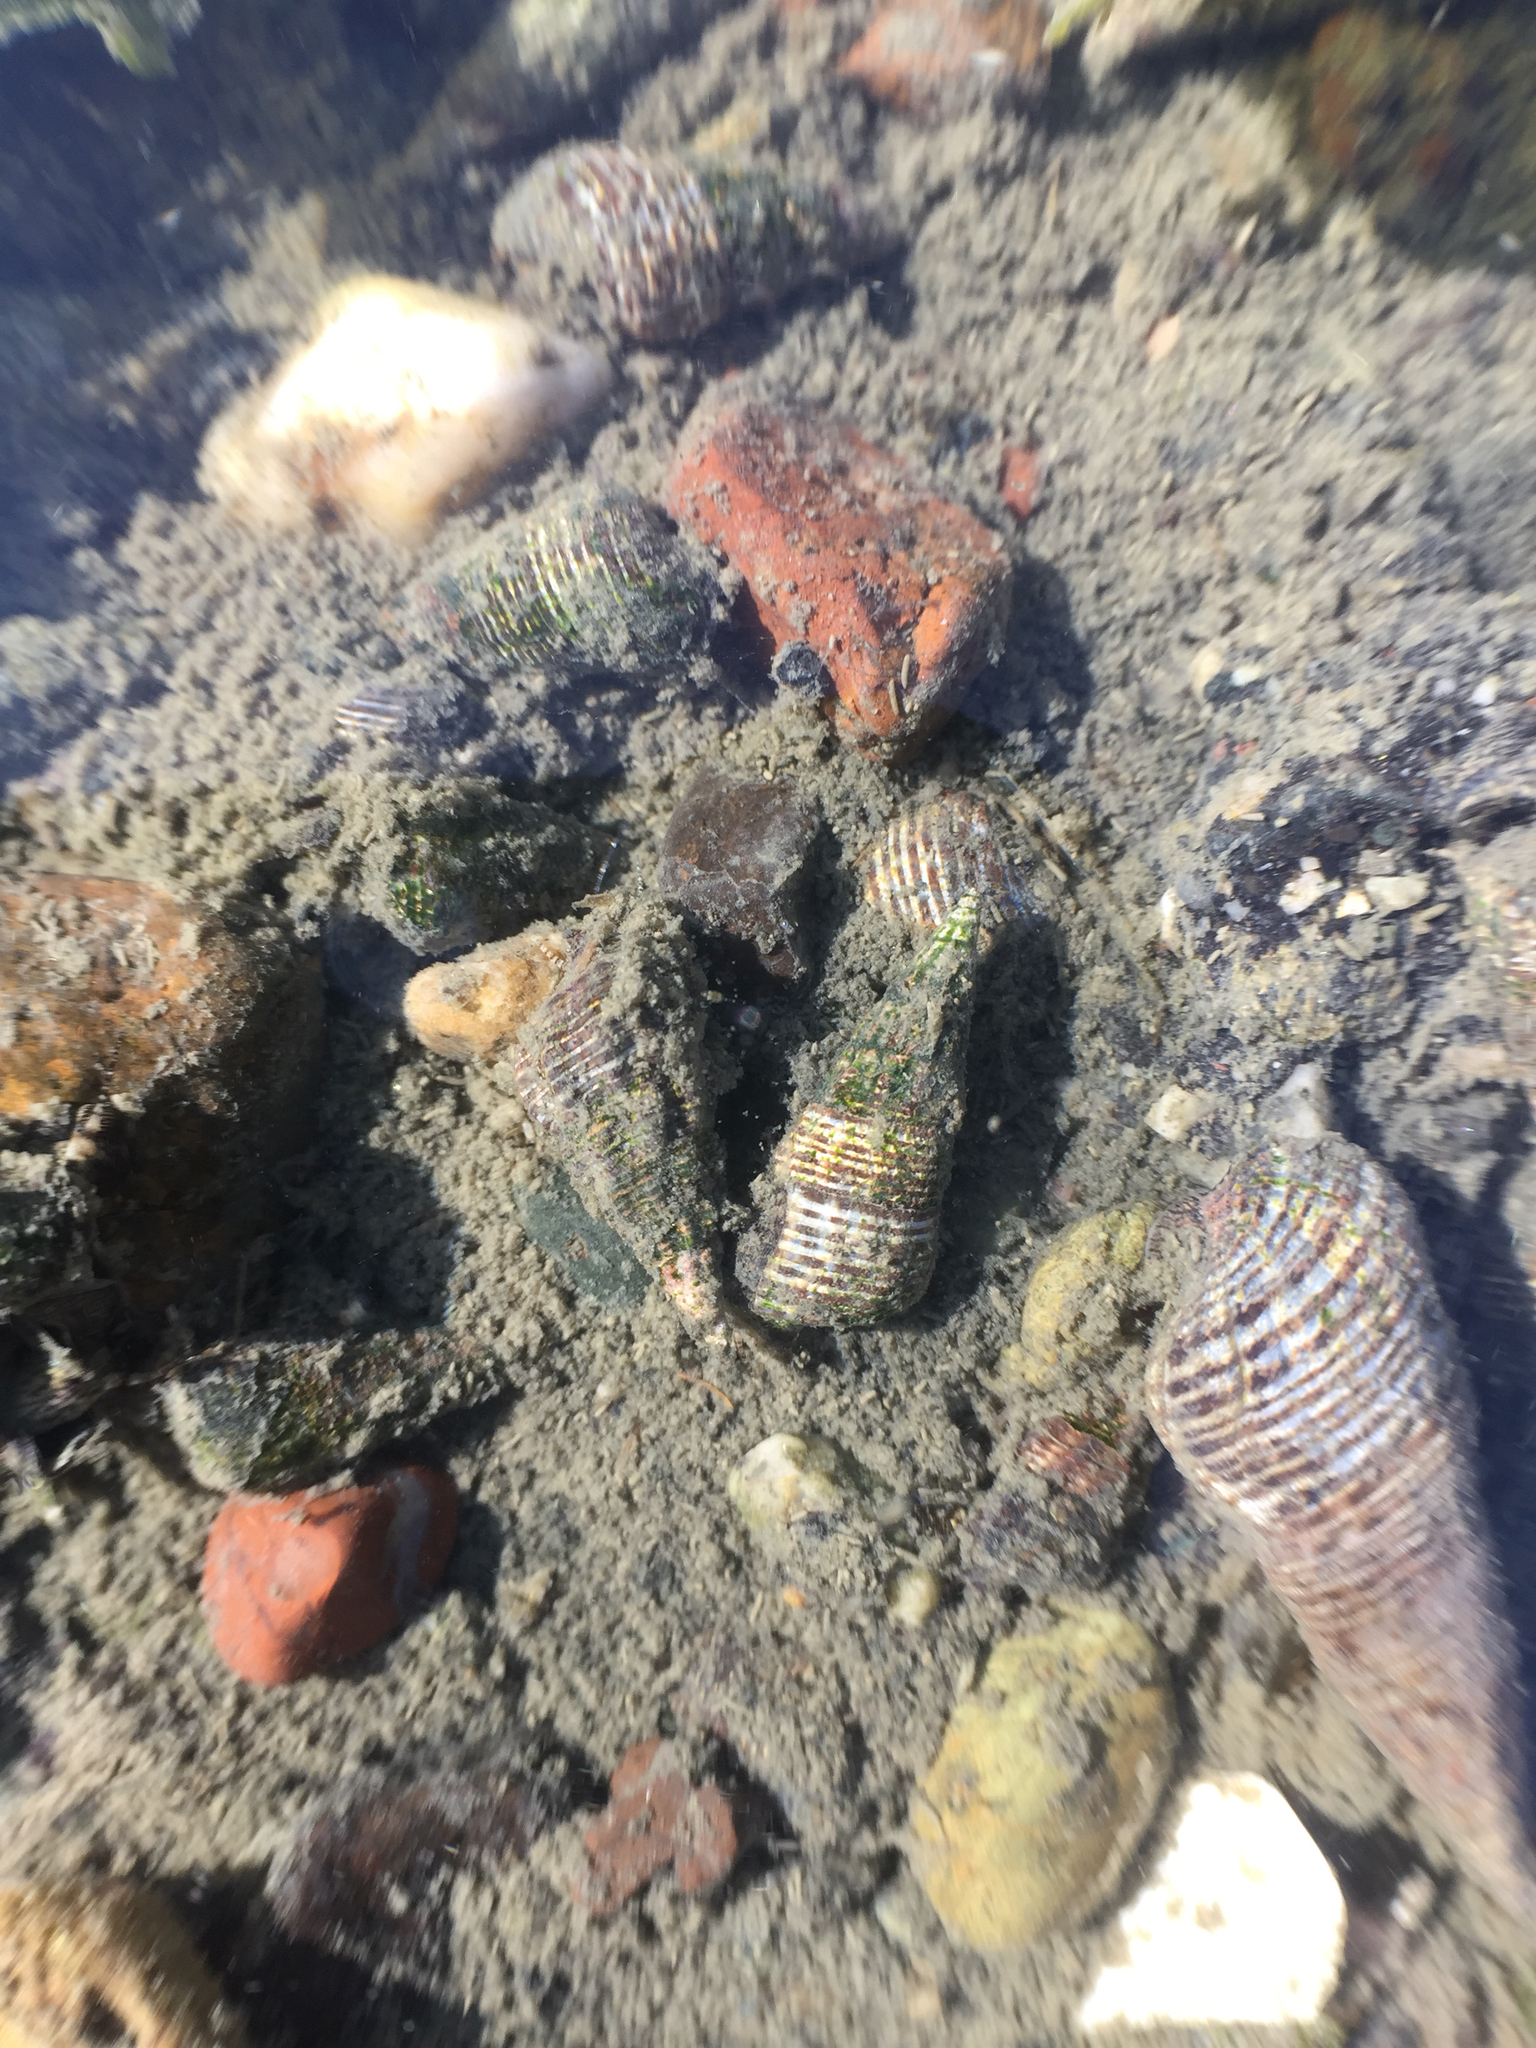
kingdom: Animalia
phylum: Mollusca
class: Gastropoda
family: Batillariidae
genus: Batillaria
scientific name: Batillaria attramentaria
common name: Japanese false cerith
